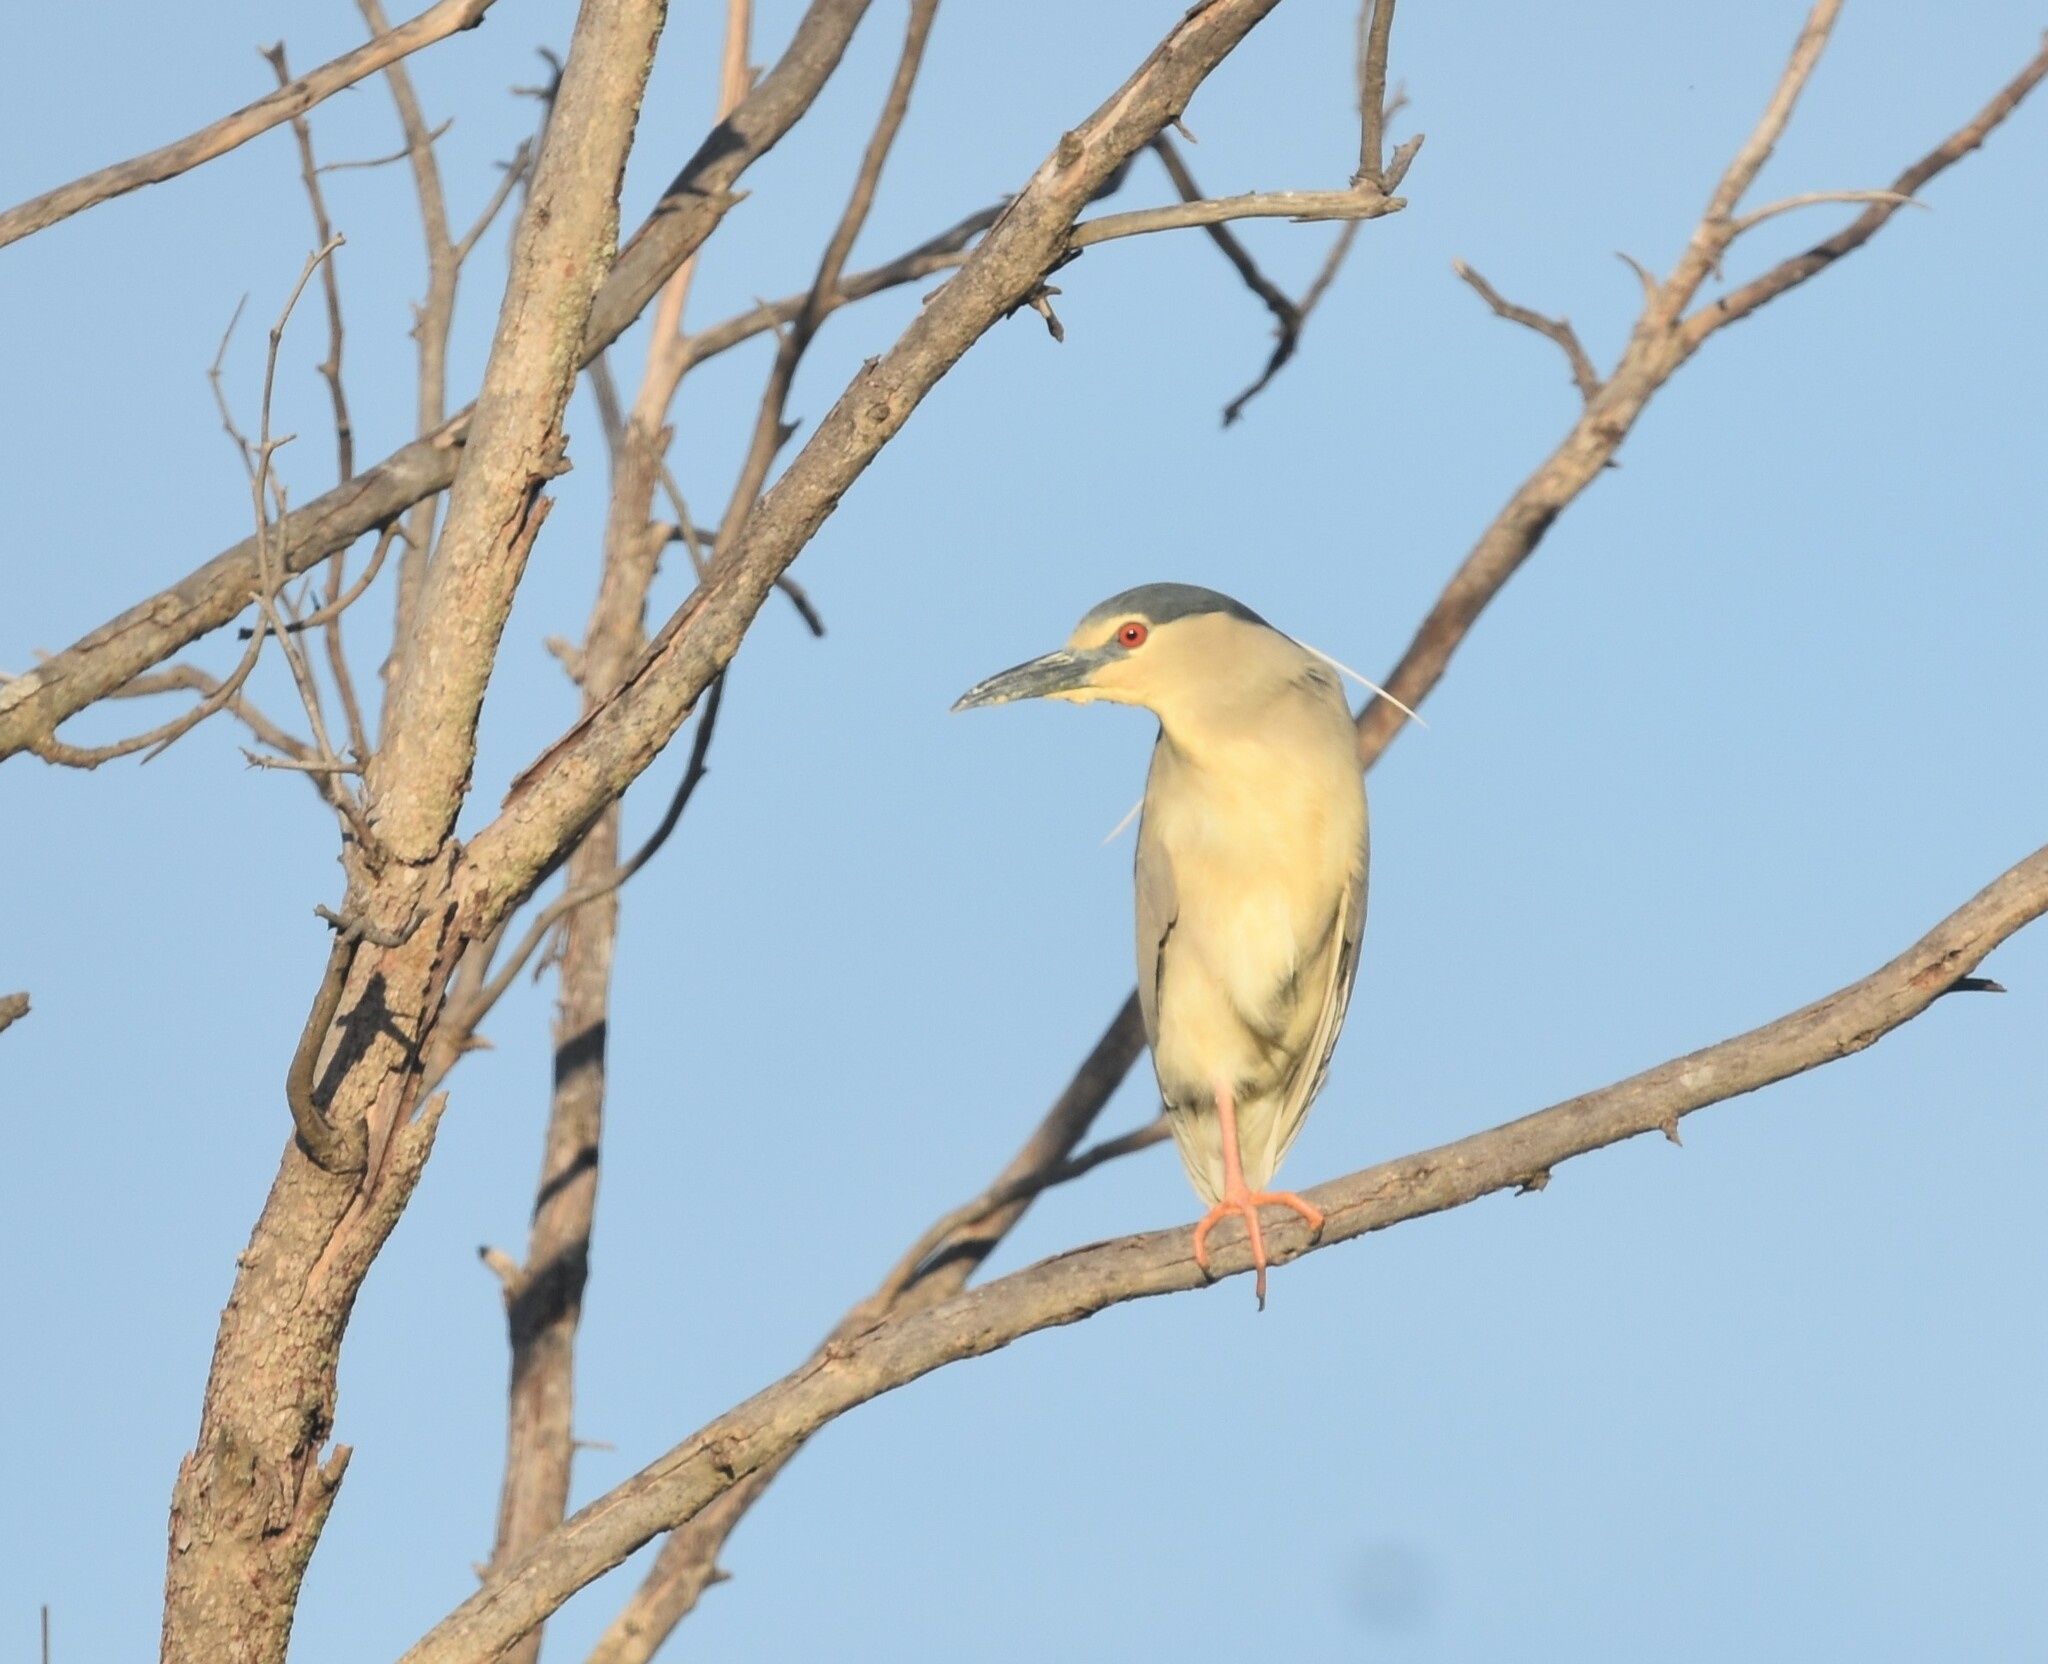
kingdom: Animalia
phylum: Chordata
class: Aves
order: Pelecaniformes
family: Ardeidae
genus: Nycticorax
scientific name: Nycticorax nycticorax
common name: Black-crowned night heron
